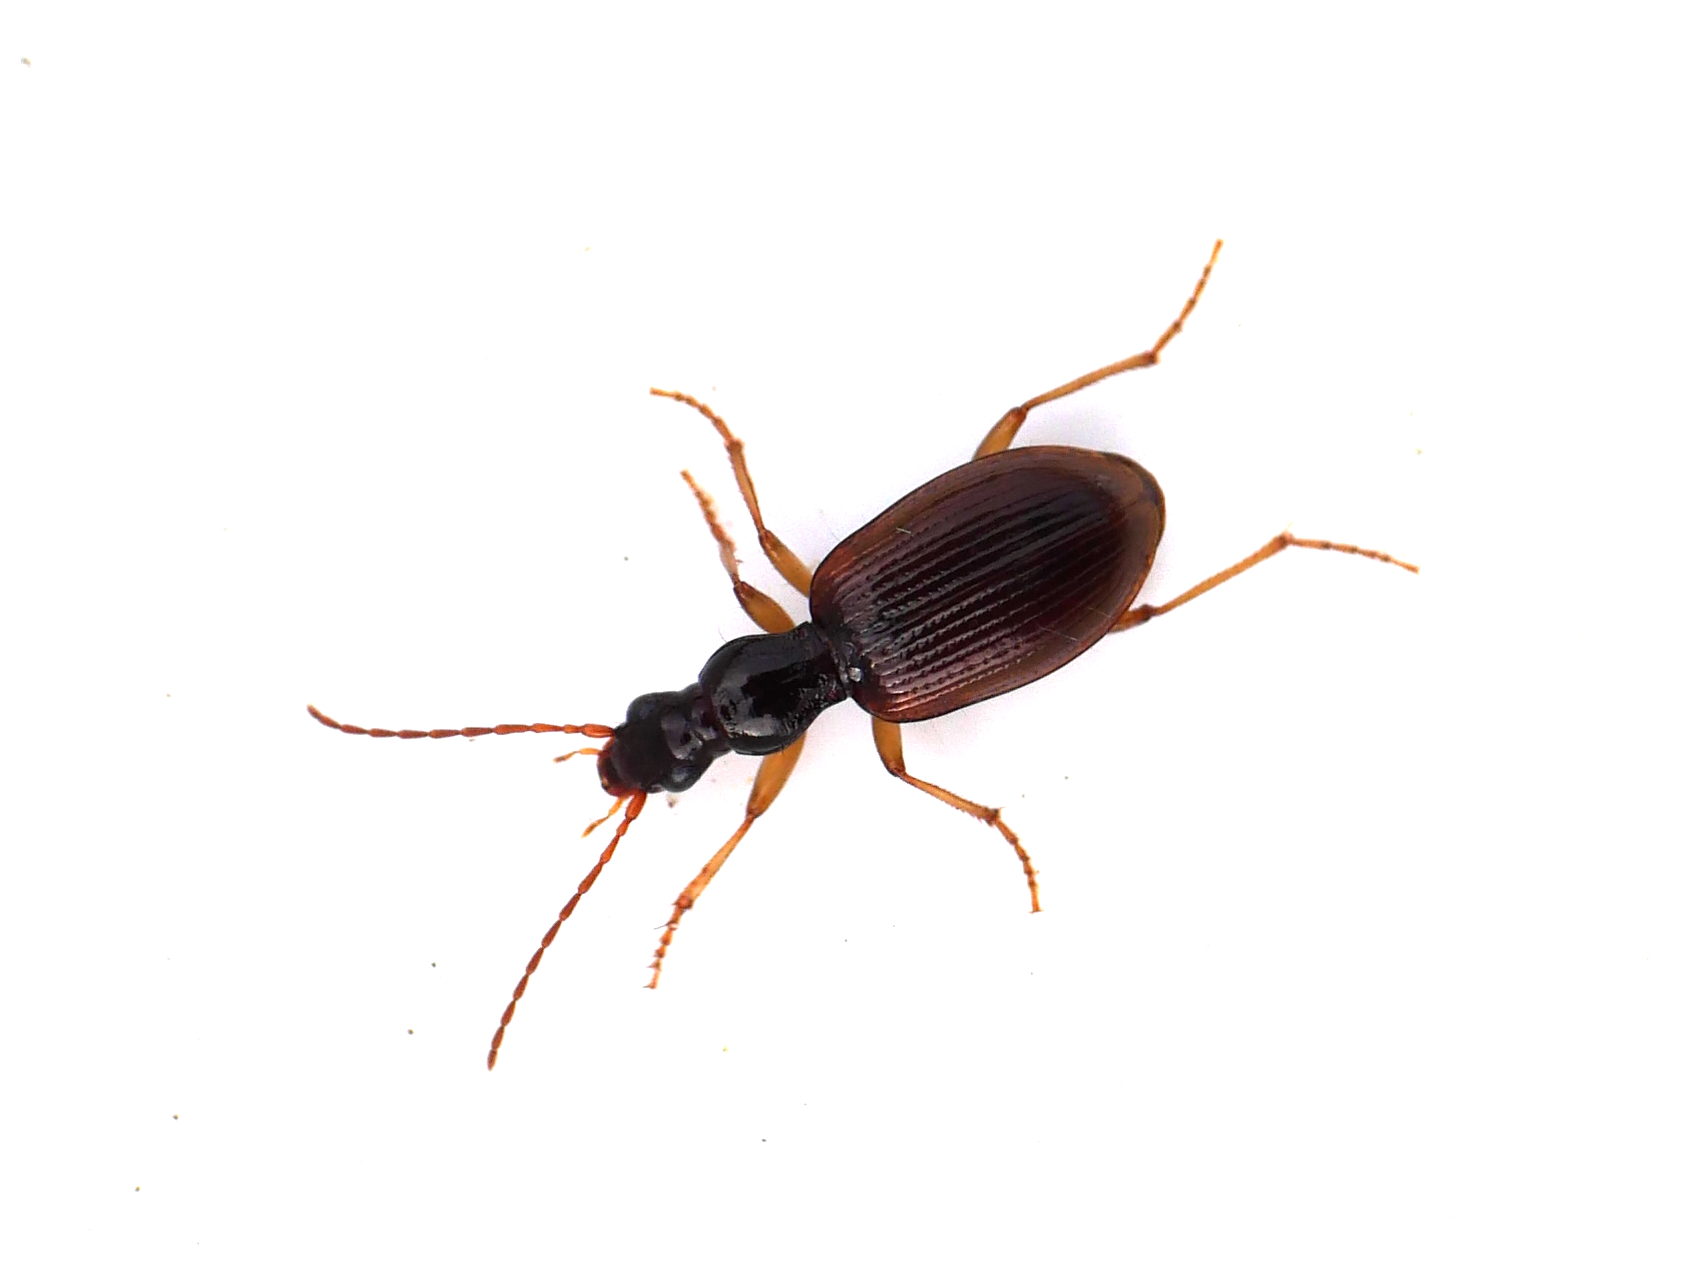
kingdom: Animalia
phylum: Arthropoda
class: Insecta
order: Coleoptera
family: Carabidae
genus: Oxypselaphus
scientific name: Oxypselaphus obscurus
